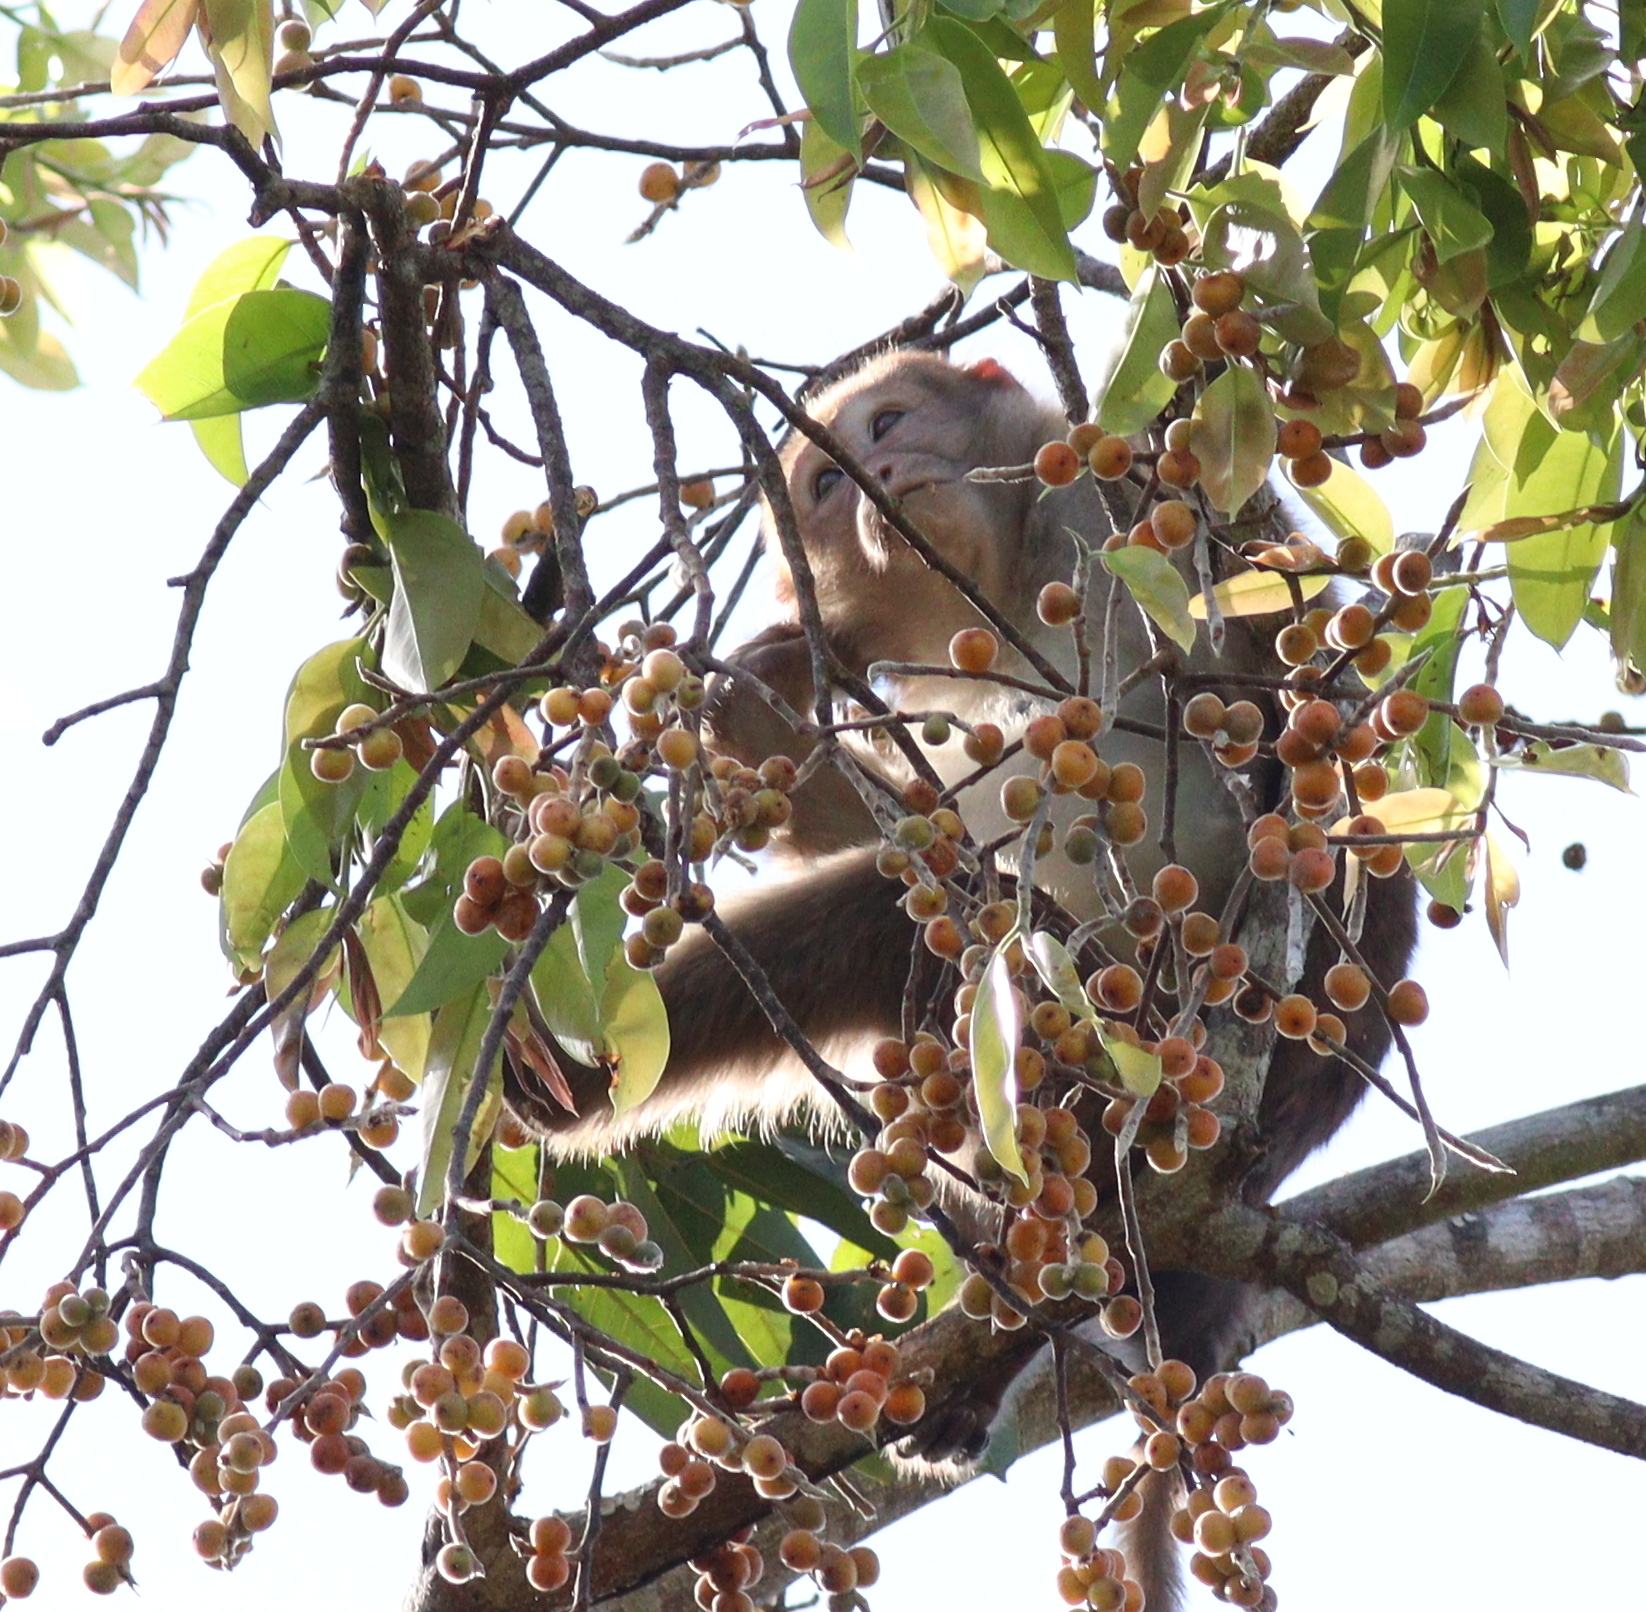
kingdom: Animalia
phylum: Chordata
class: Mammalia
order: Primates
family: Cercopithecidae
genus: Macaca
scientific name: Macaca assamensis
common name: Assam macaque
